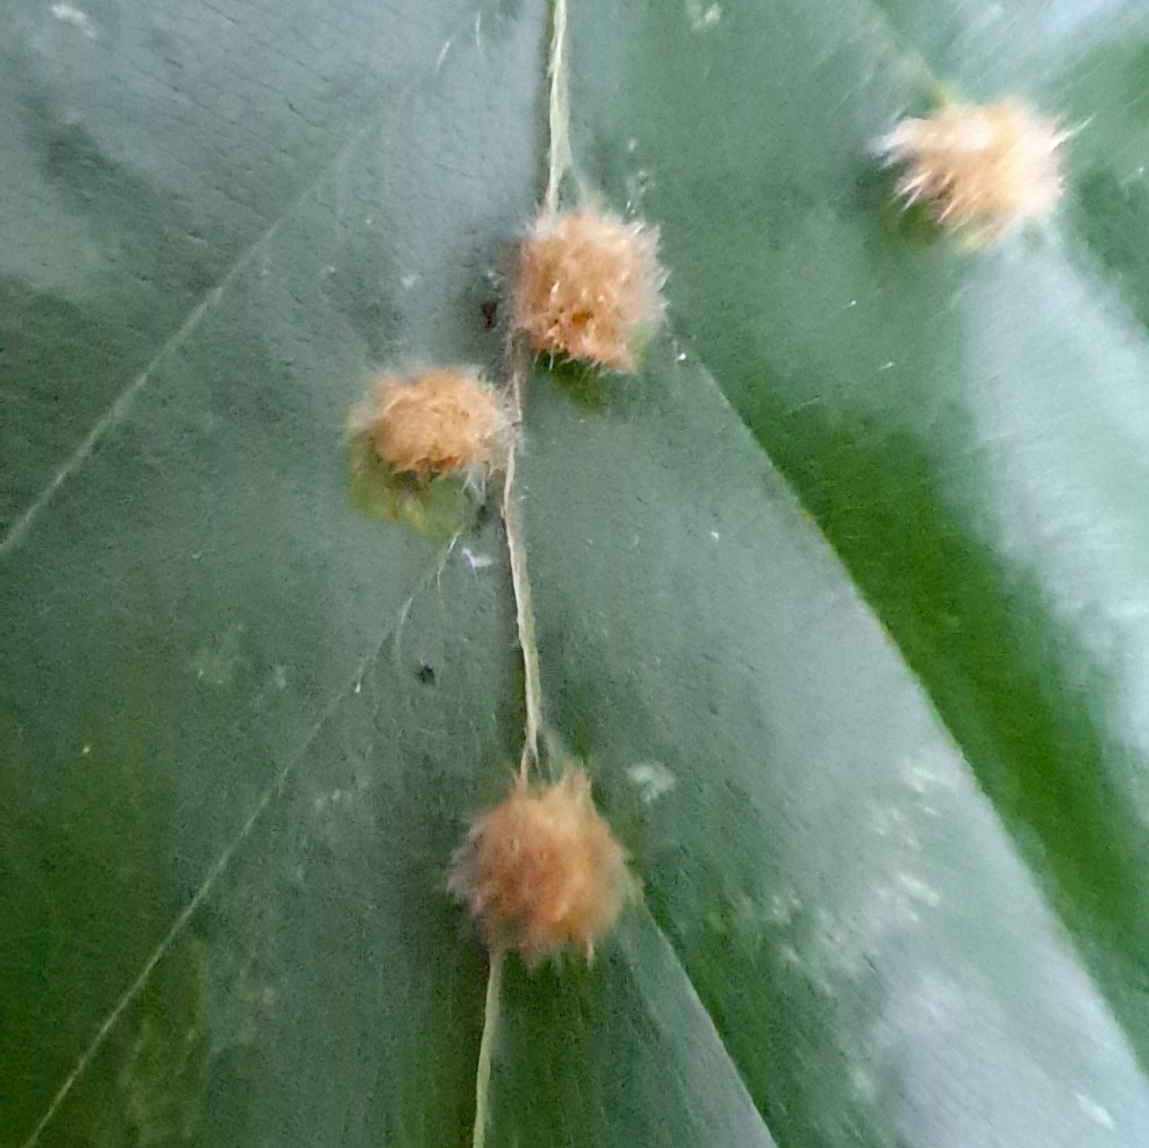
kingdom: Animalia
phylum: Arthropoda
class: Insecta
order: Diptera
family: Cecidomyiidae
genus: Hartigiola
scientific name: Hartigiola annulipes
